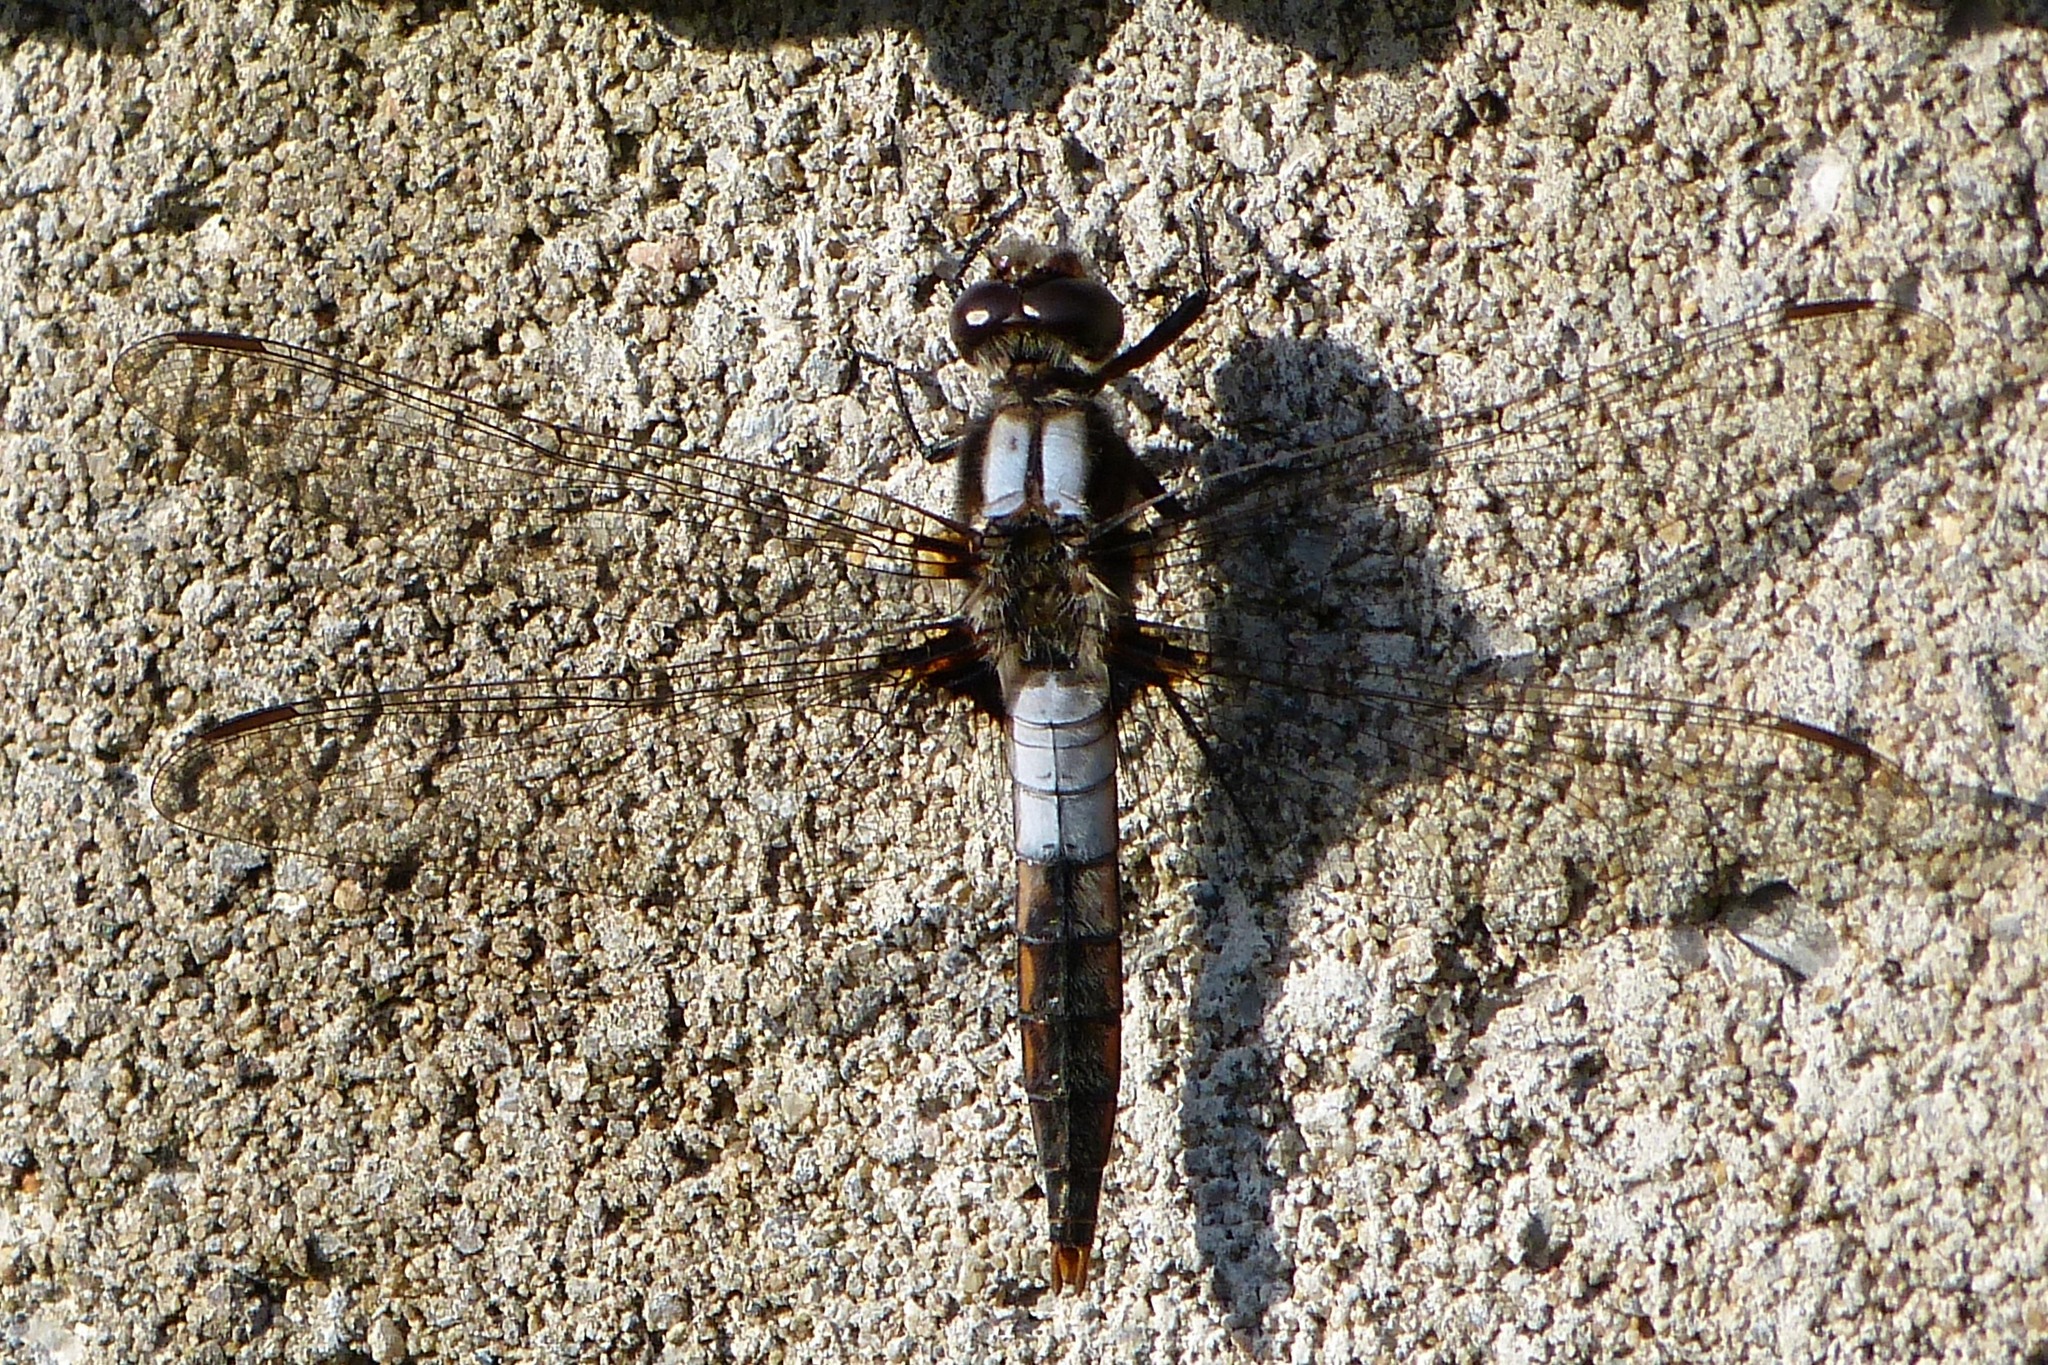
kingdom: Animalia
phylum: Arthropoda
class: Insecta
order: Odonata
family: Libellulidae
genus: Ladona
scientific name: Ladona julia
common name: Chalk-fronted corporal
